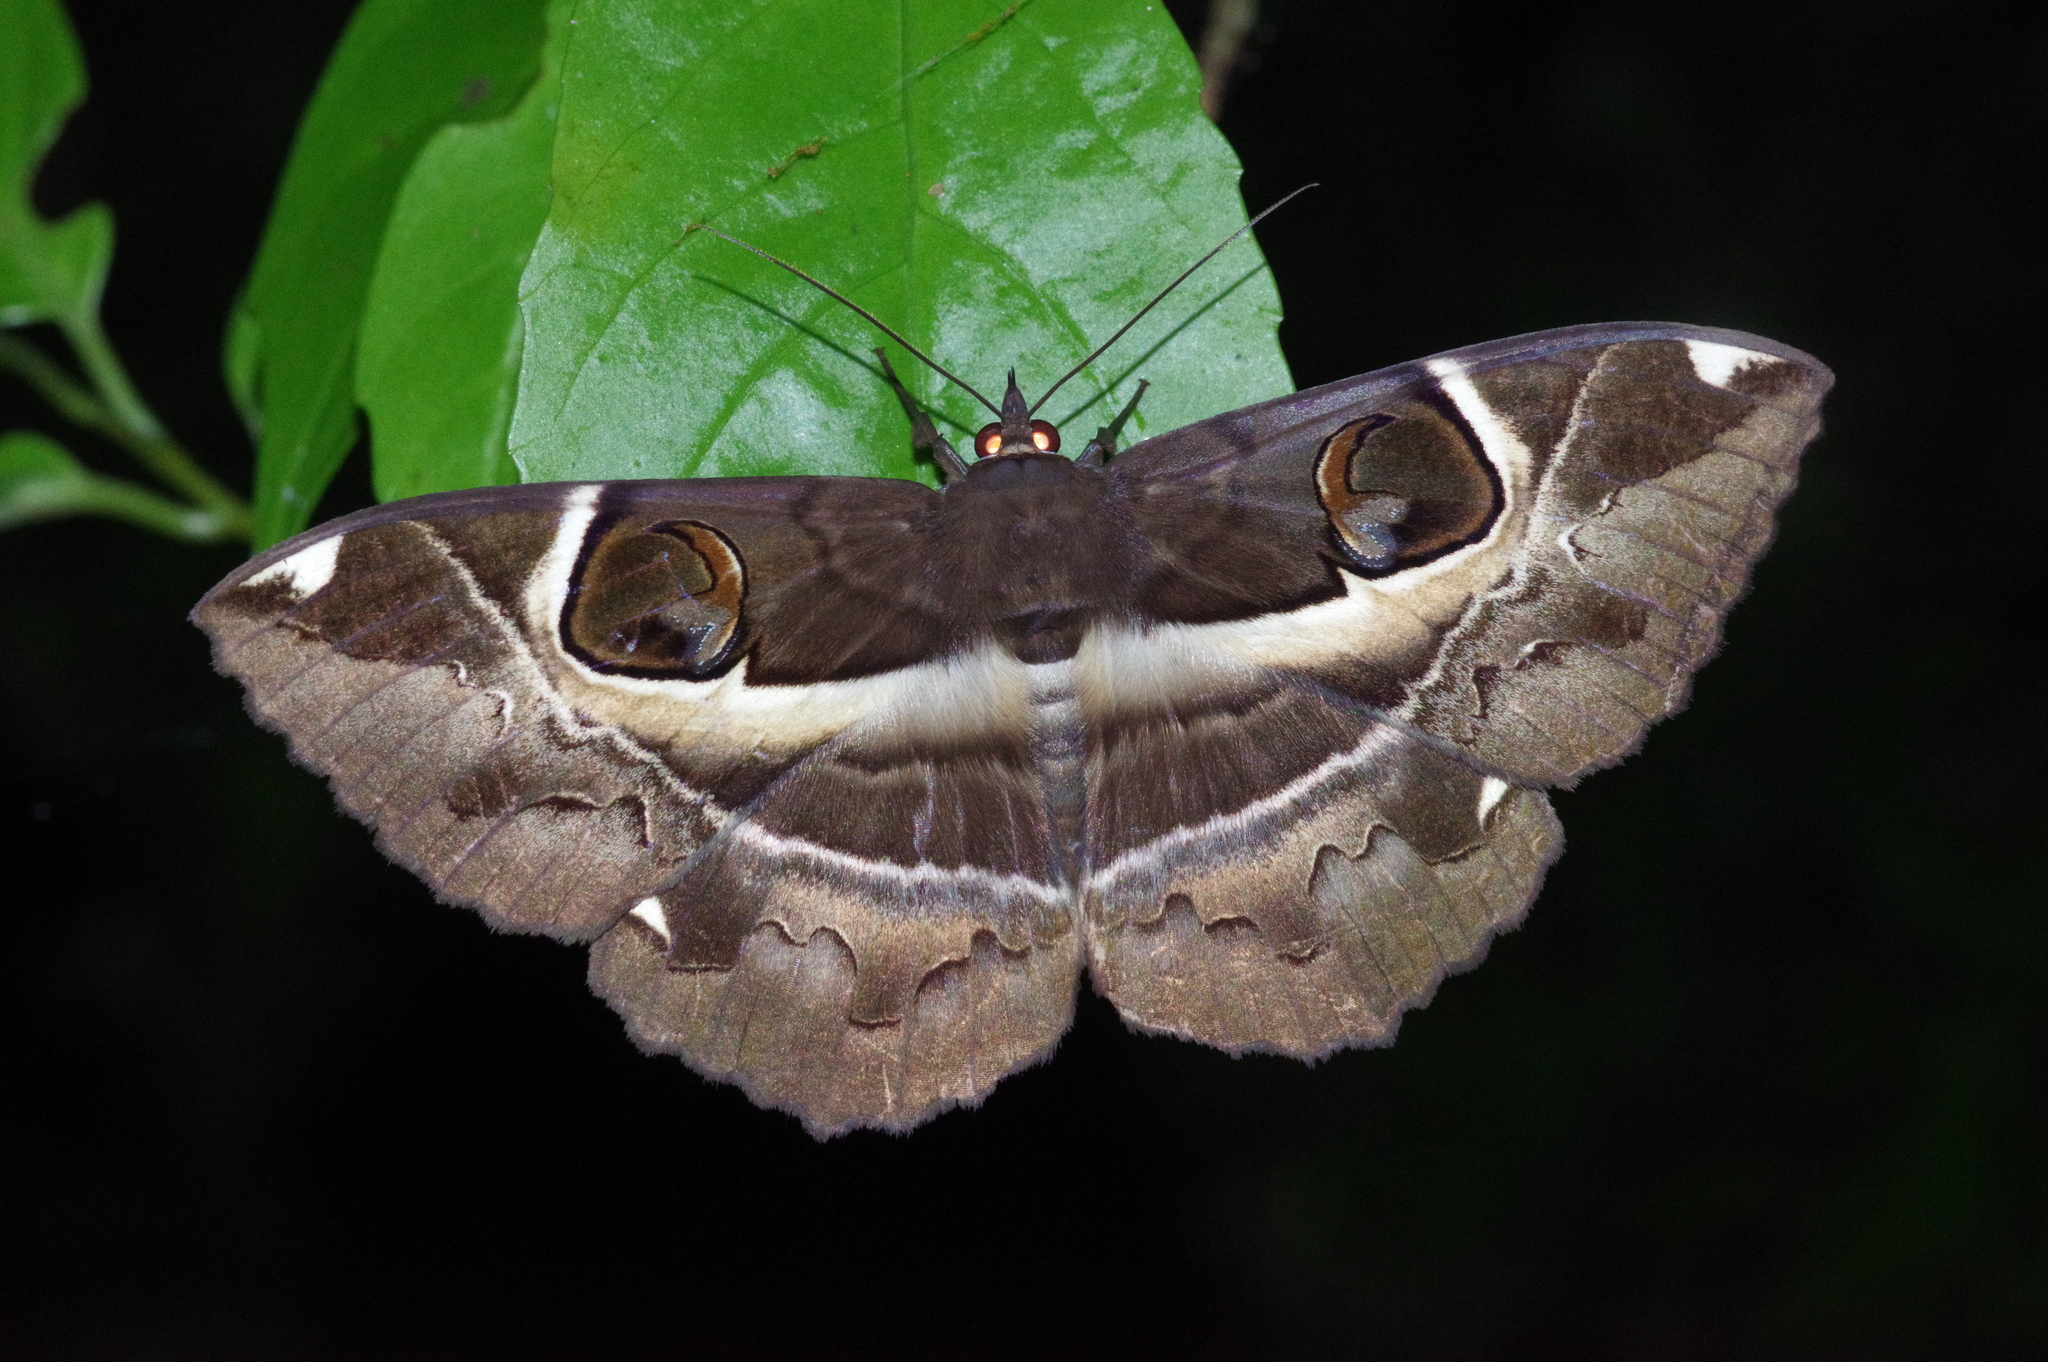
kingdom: Animalia
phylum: Arthropoda
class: Insecta
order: Lepidoptera
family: Erebidae
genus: Erebus
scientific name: Erebus ephesperis
